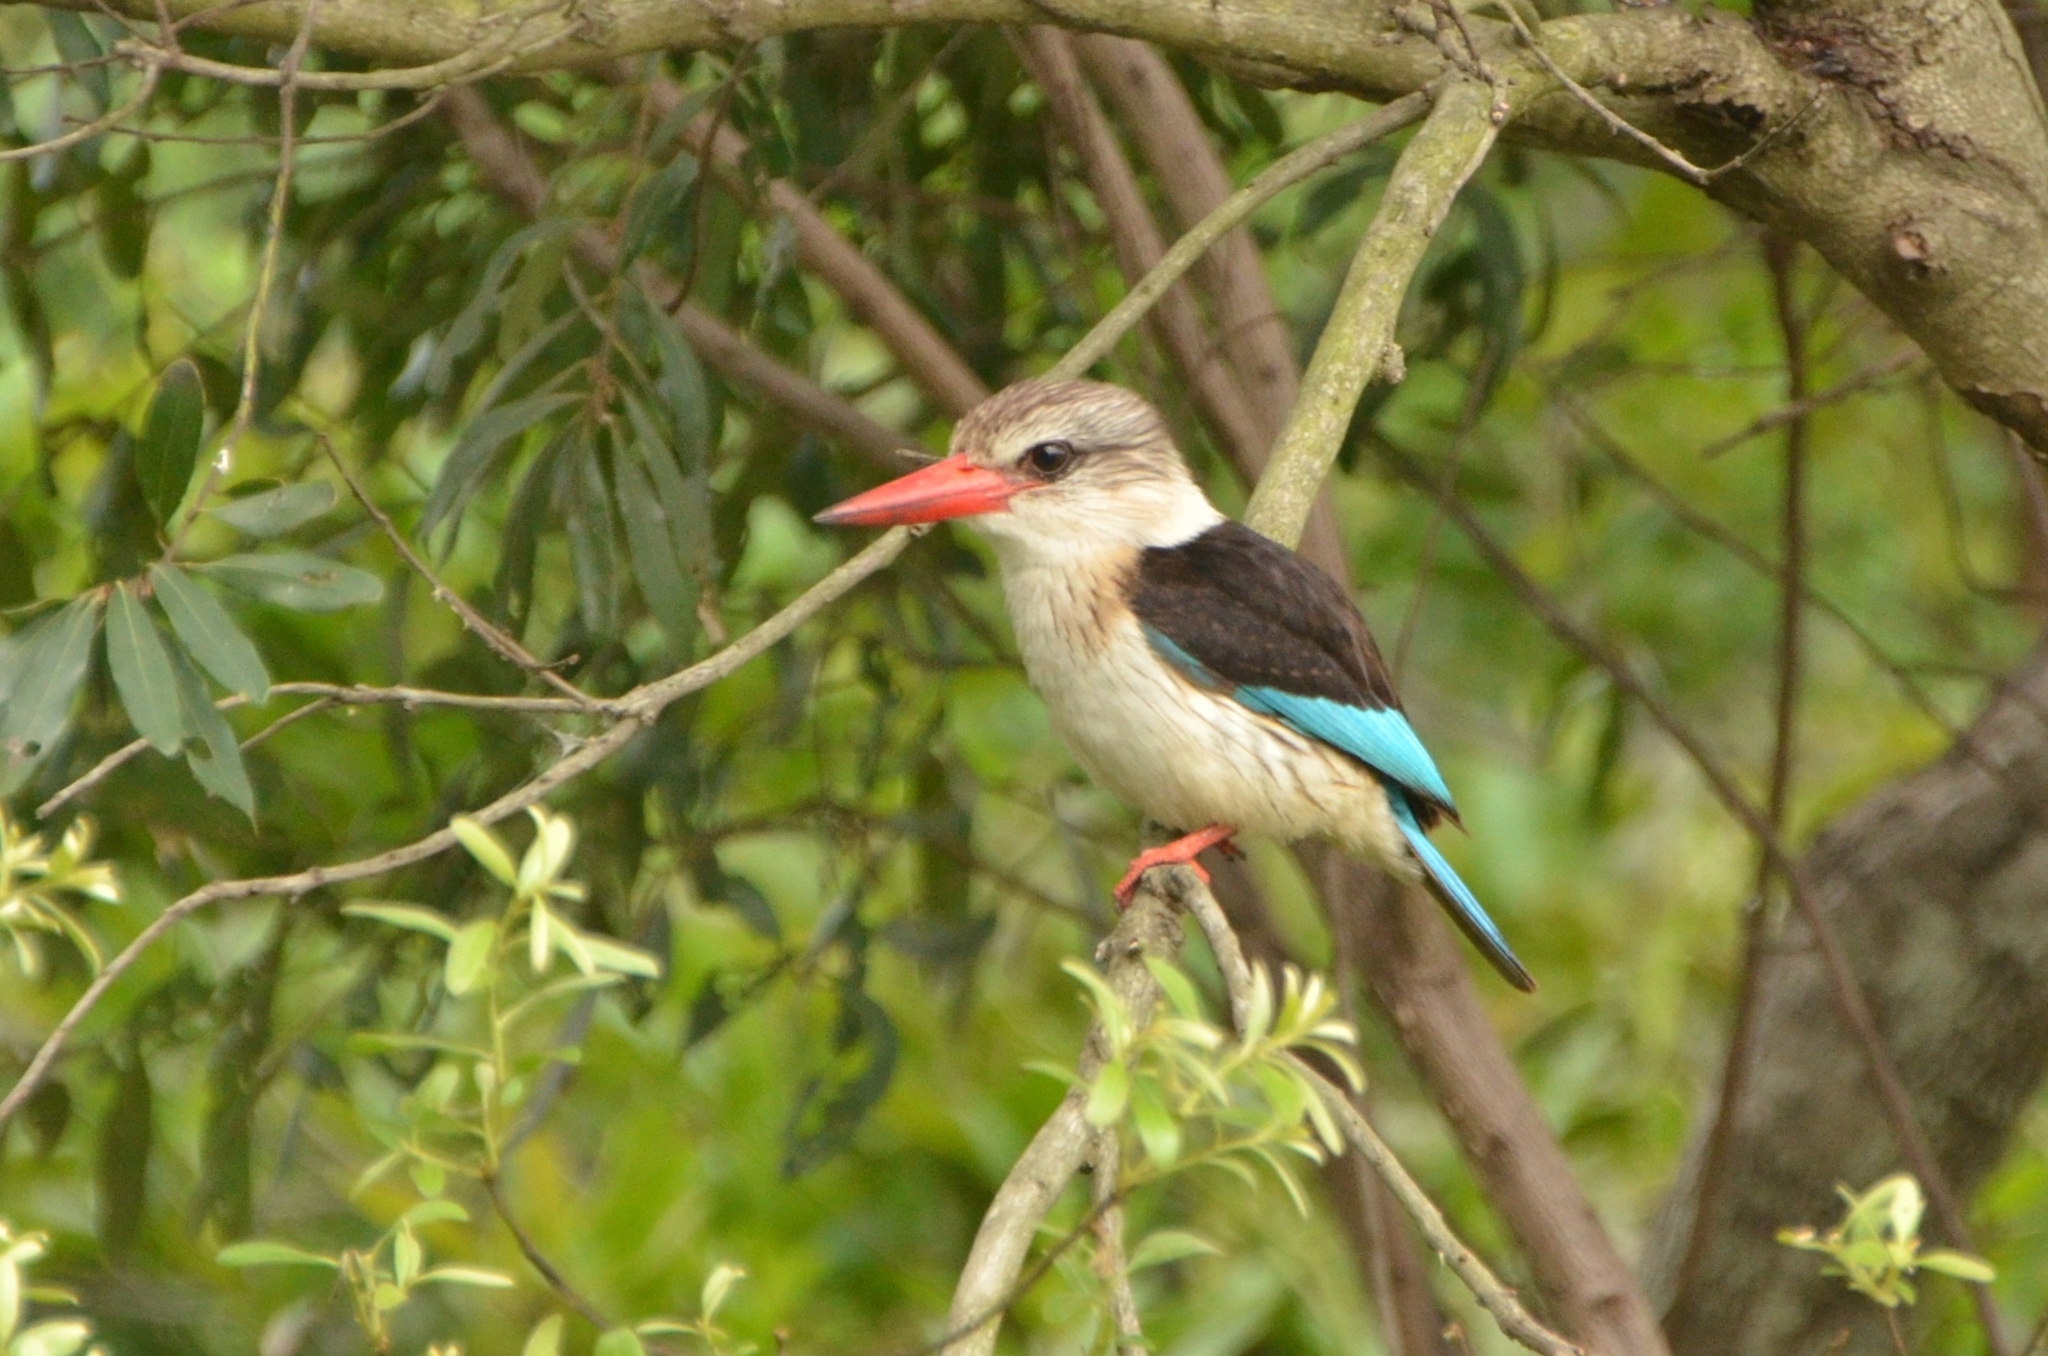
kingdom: Animalia
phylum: Chordata
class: Aves
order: Coraciiformes
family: Alcedinidae
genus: Halcyon
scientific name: Halcyon albiventris
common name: Brown-hooded kingfisher
